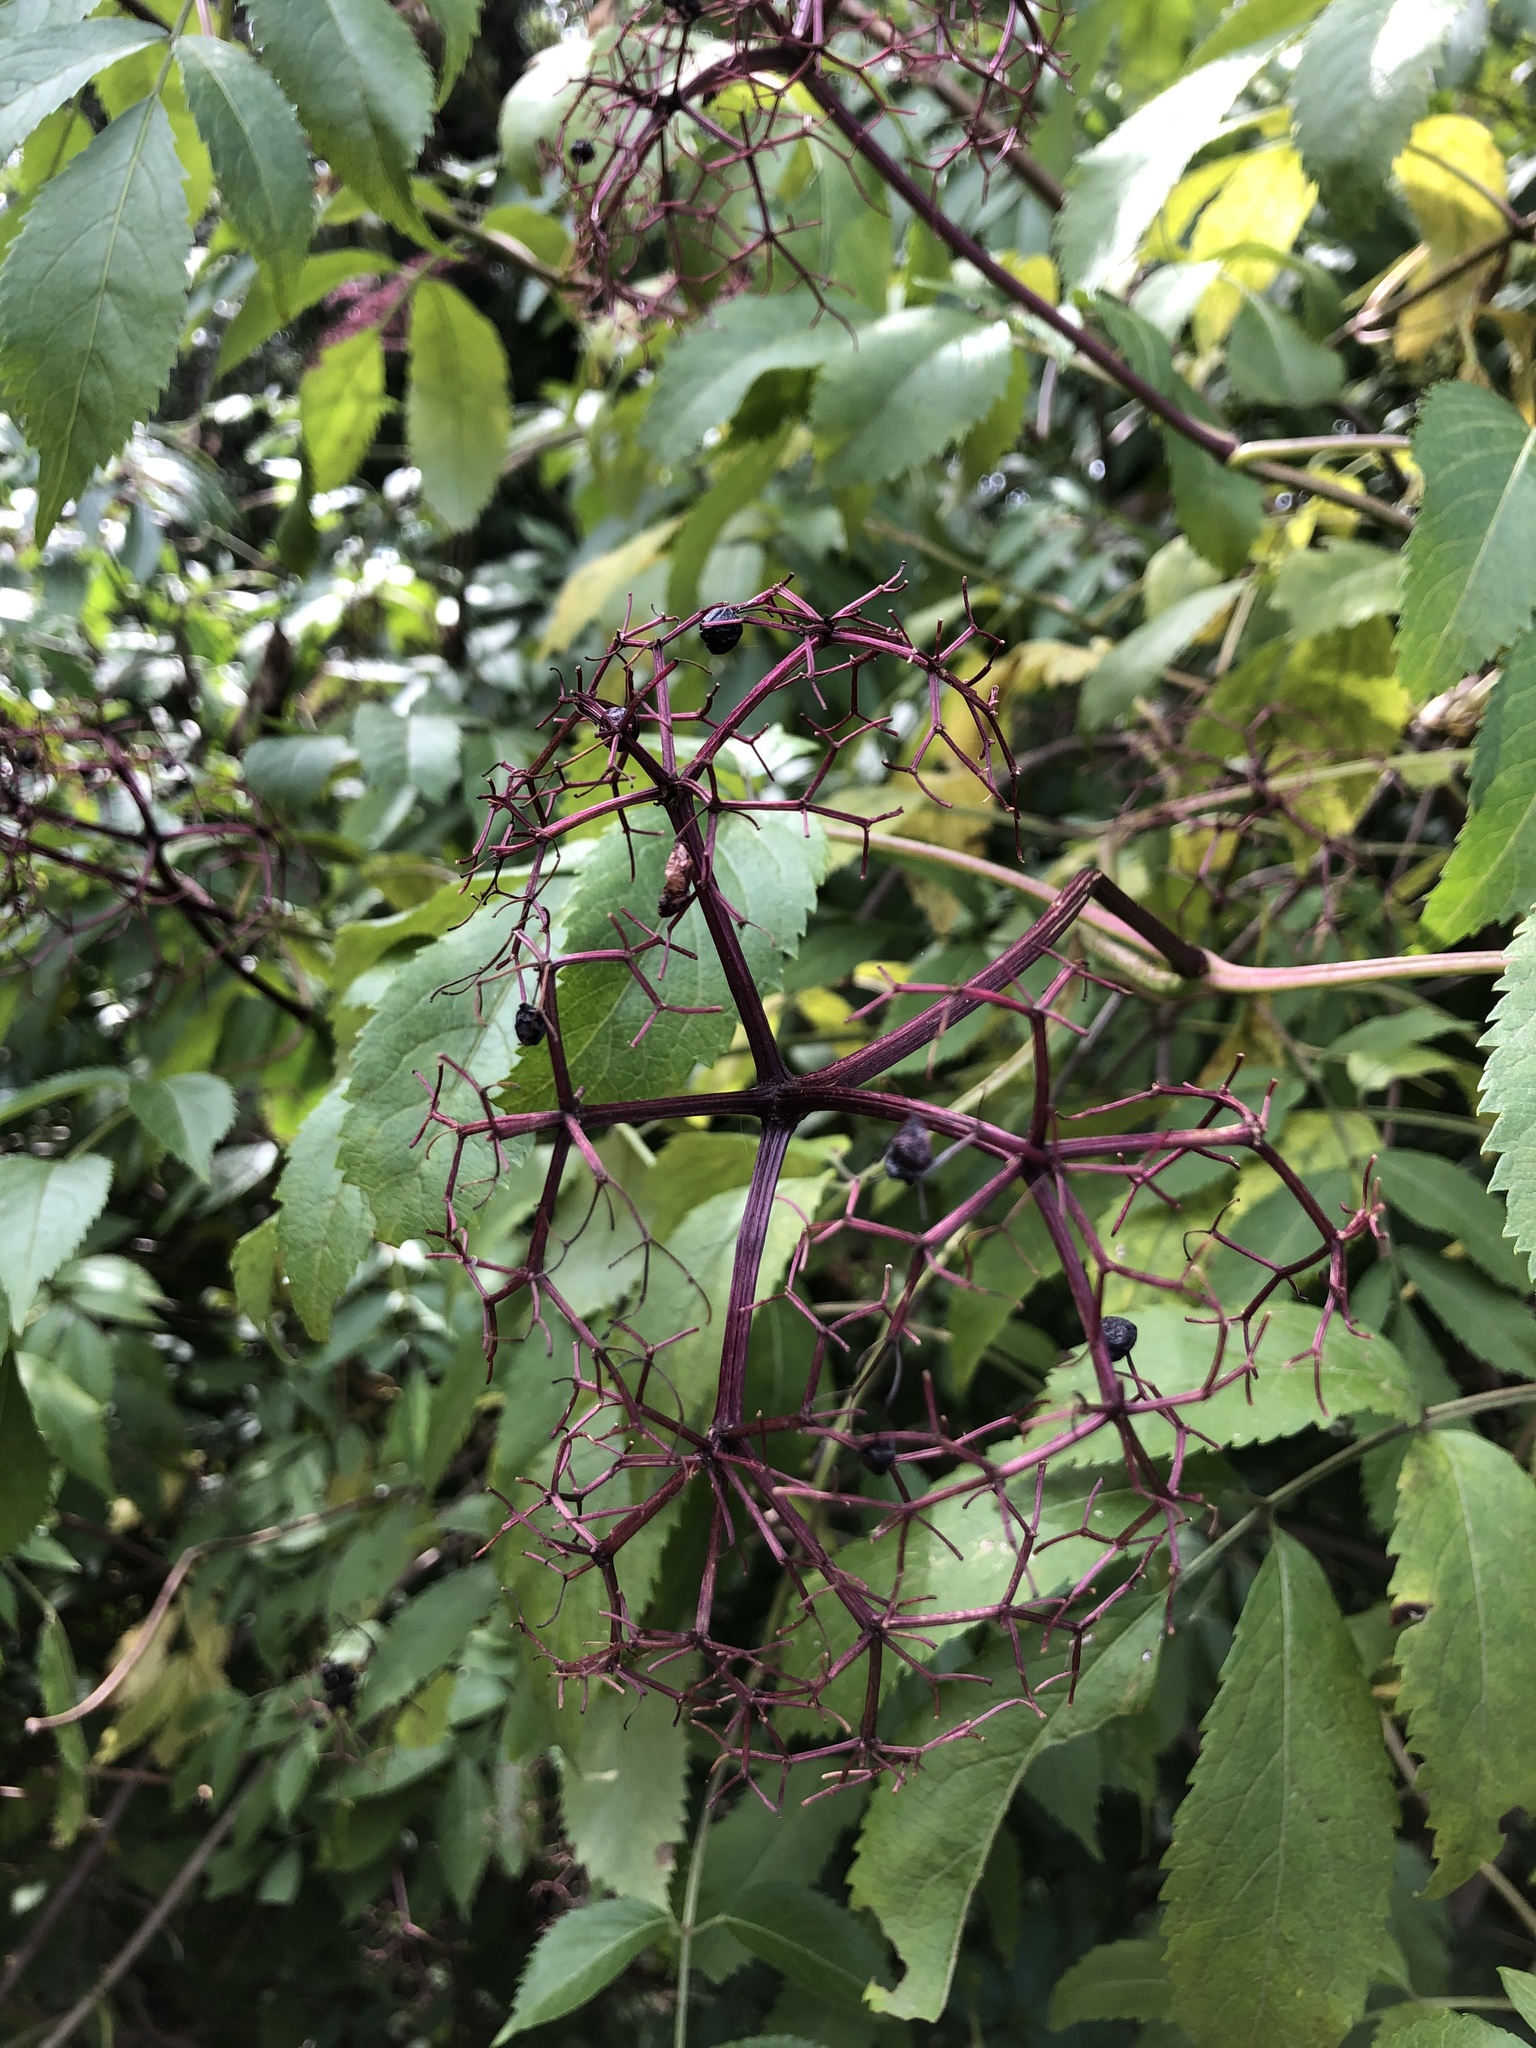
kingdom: Plantae
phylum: Tracheophyta
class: Magnoliopsida
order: Dipsacales
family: Viburnaceae
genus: Sambucus
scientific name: Sambucus canadensis
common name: American elder
